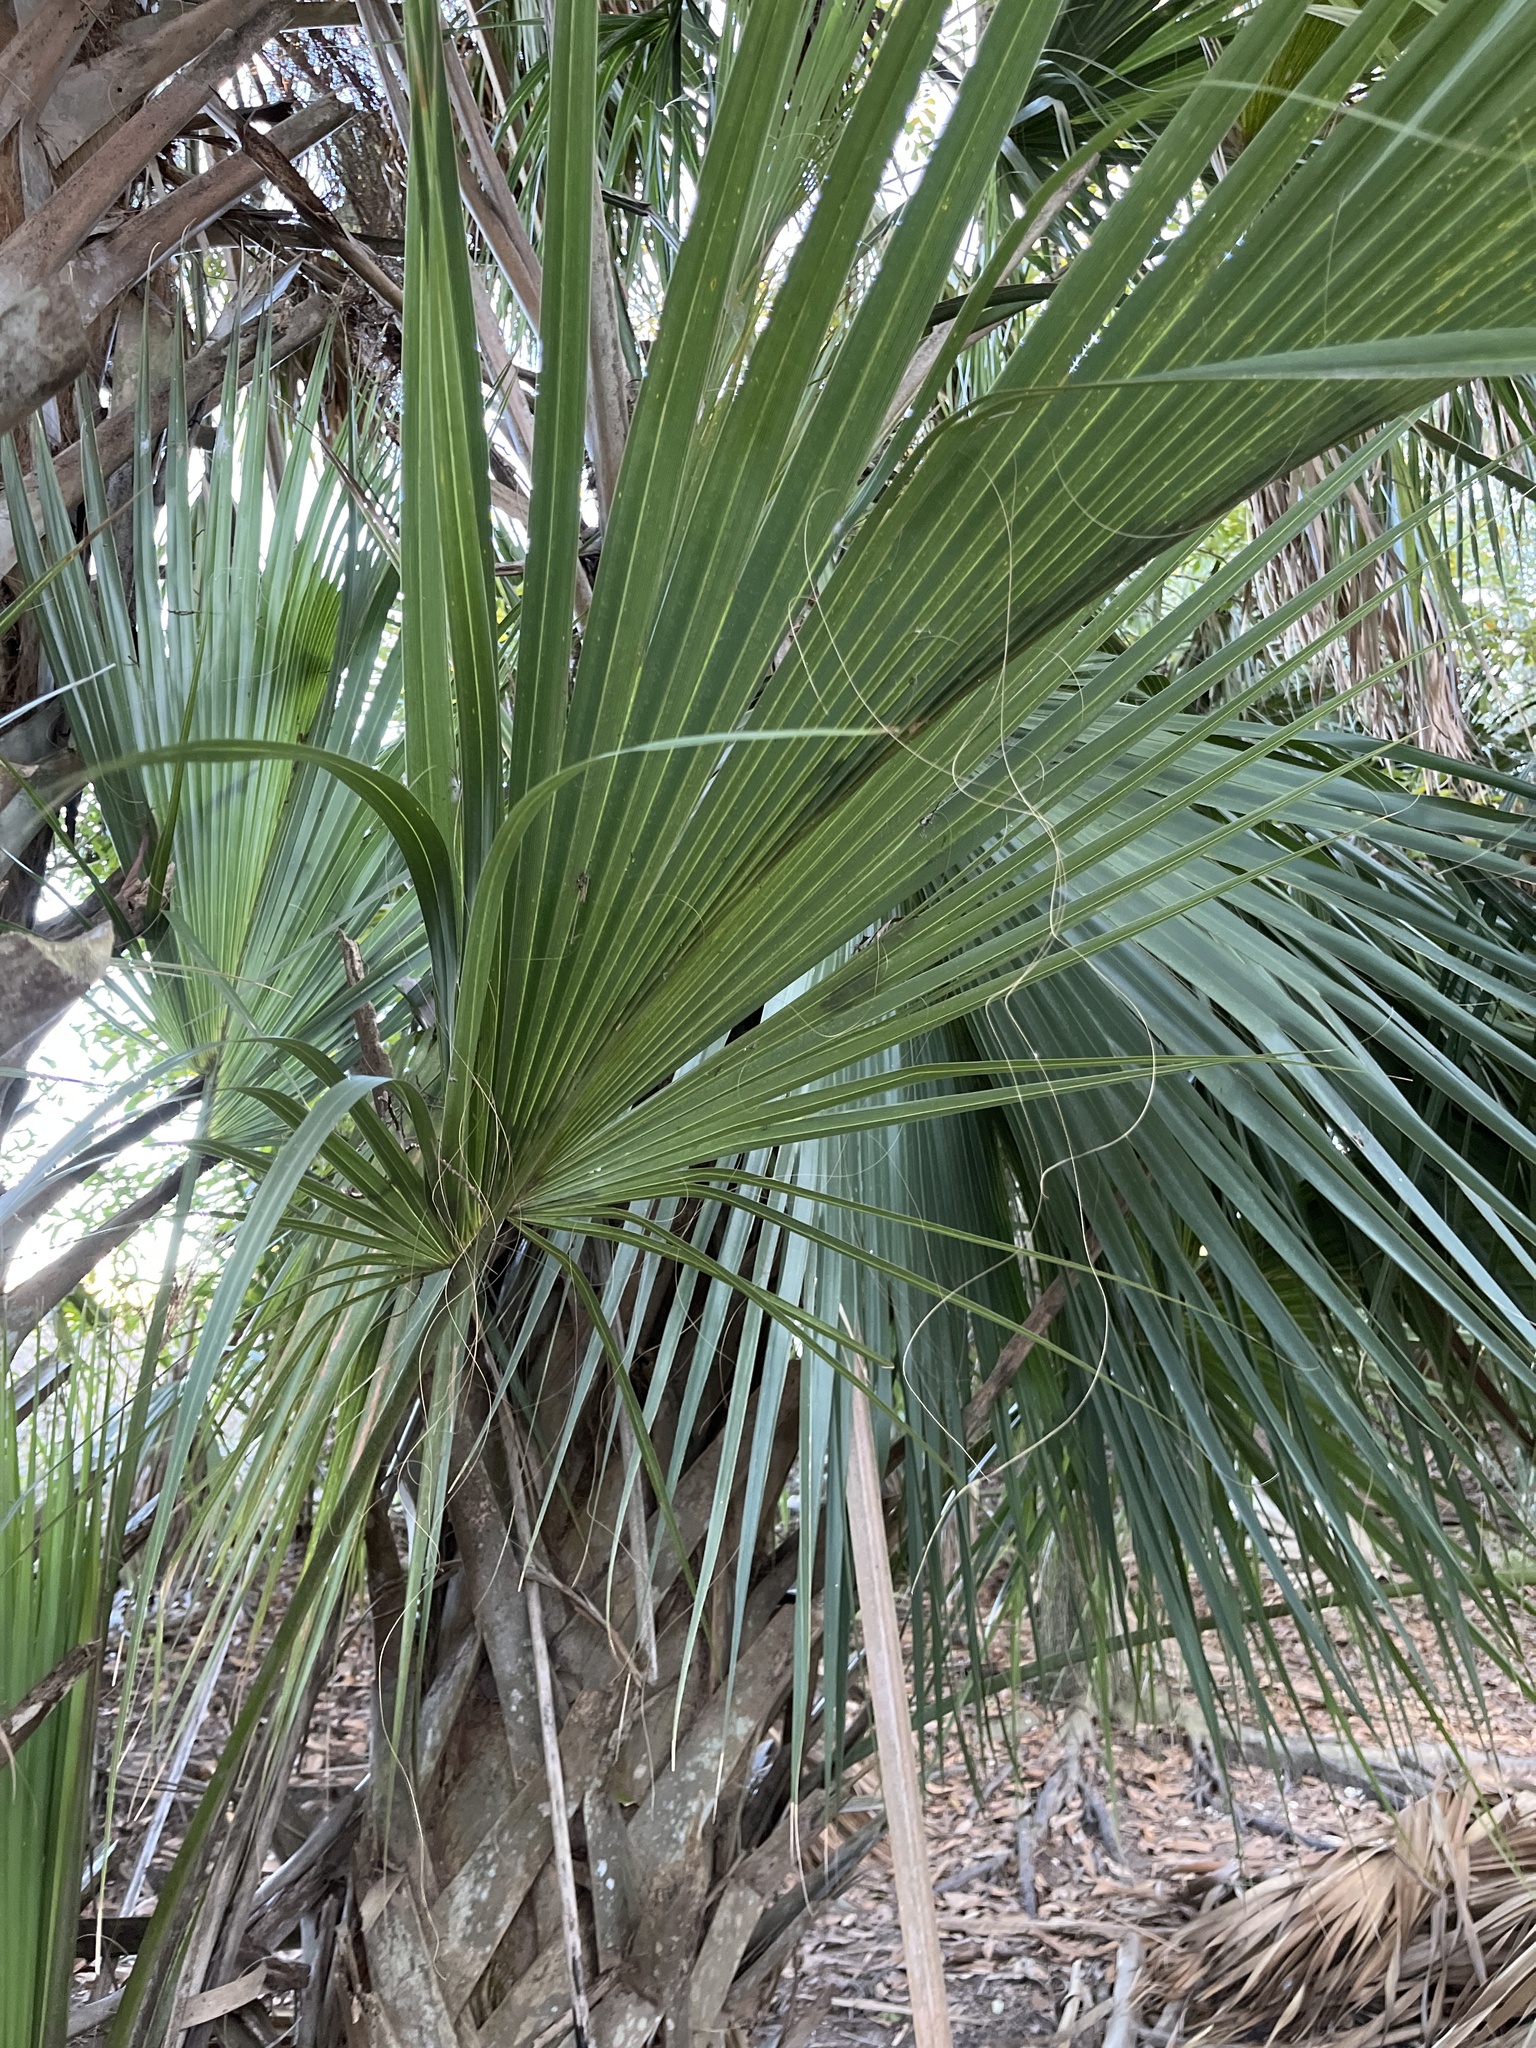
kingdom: Plantae
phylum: Tracheophyta
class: Liliopsida
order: Arecales
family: Arecaceae
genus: Sabal
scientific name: Sabal palmetto
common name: Blue palmetto
